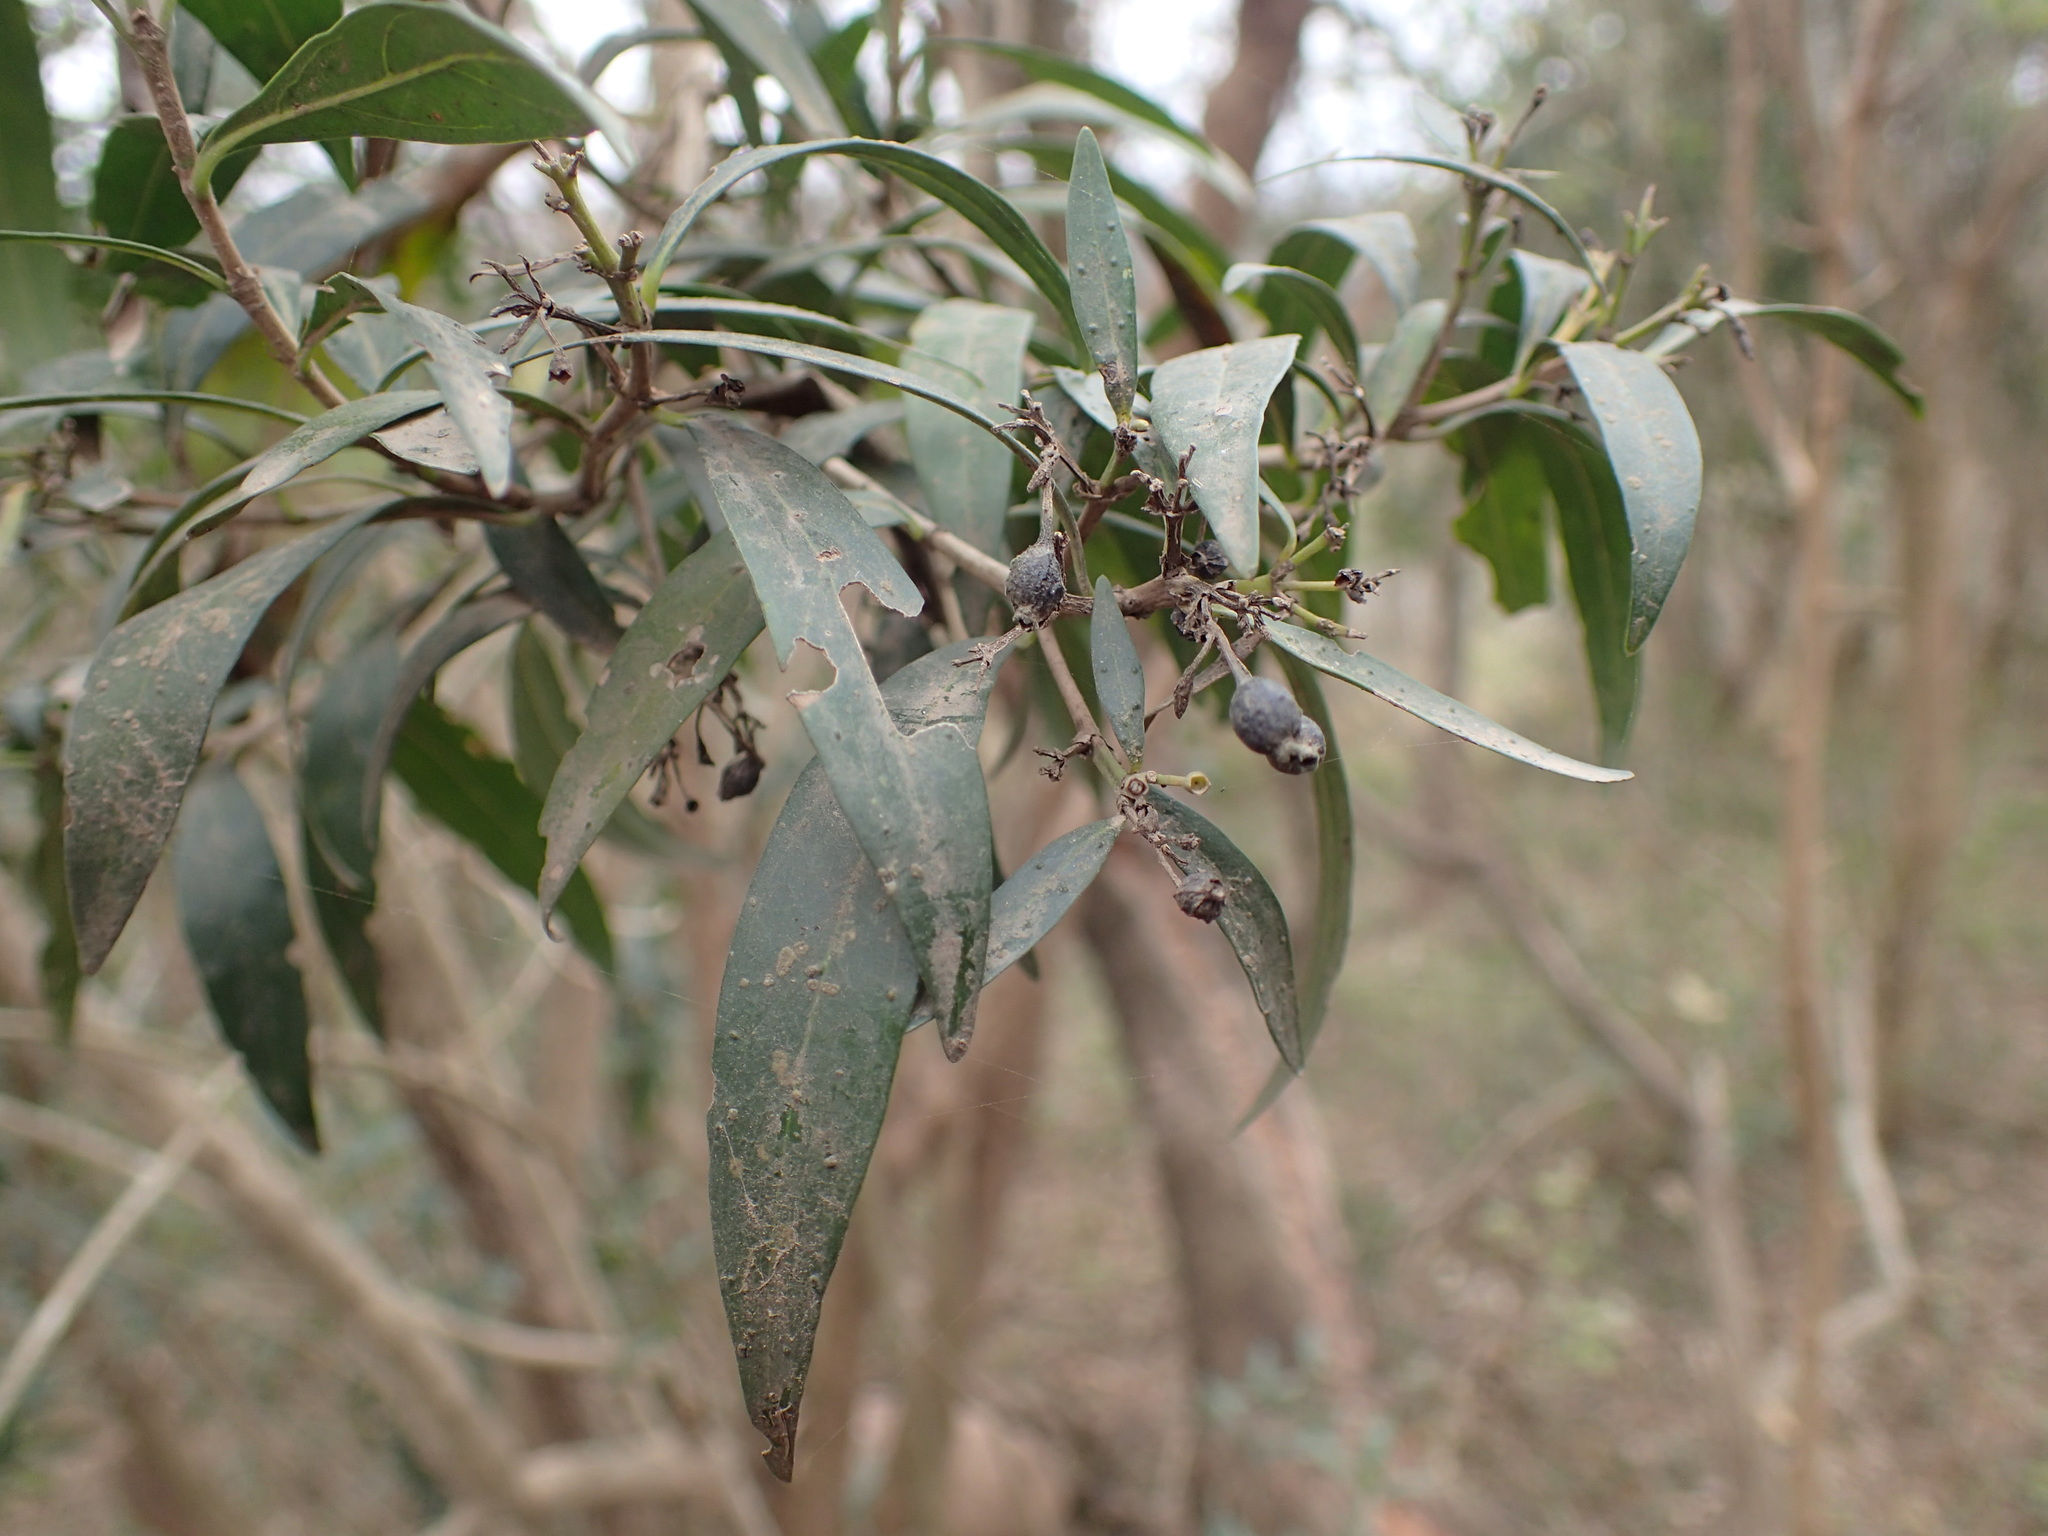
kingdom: Plantae
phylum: Tracheophyta
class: Magnoliopsida
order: Gentianales
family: Rubiaceae
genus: Pavetta
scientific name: Pavetta lanceolata
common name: Weeping brides-bush
